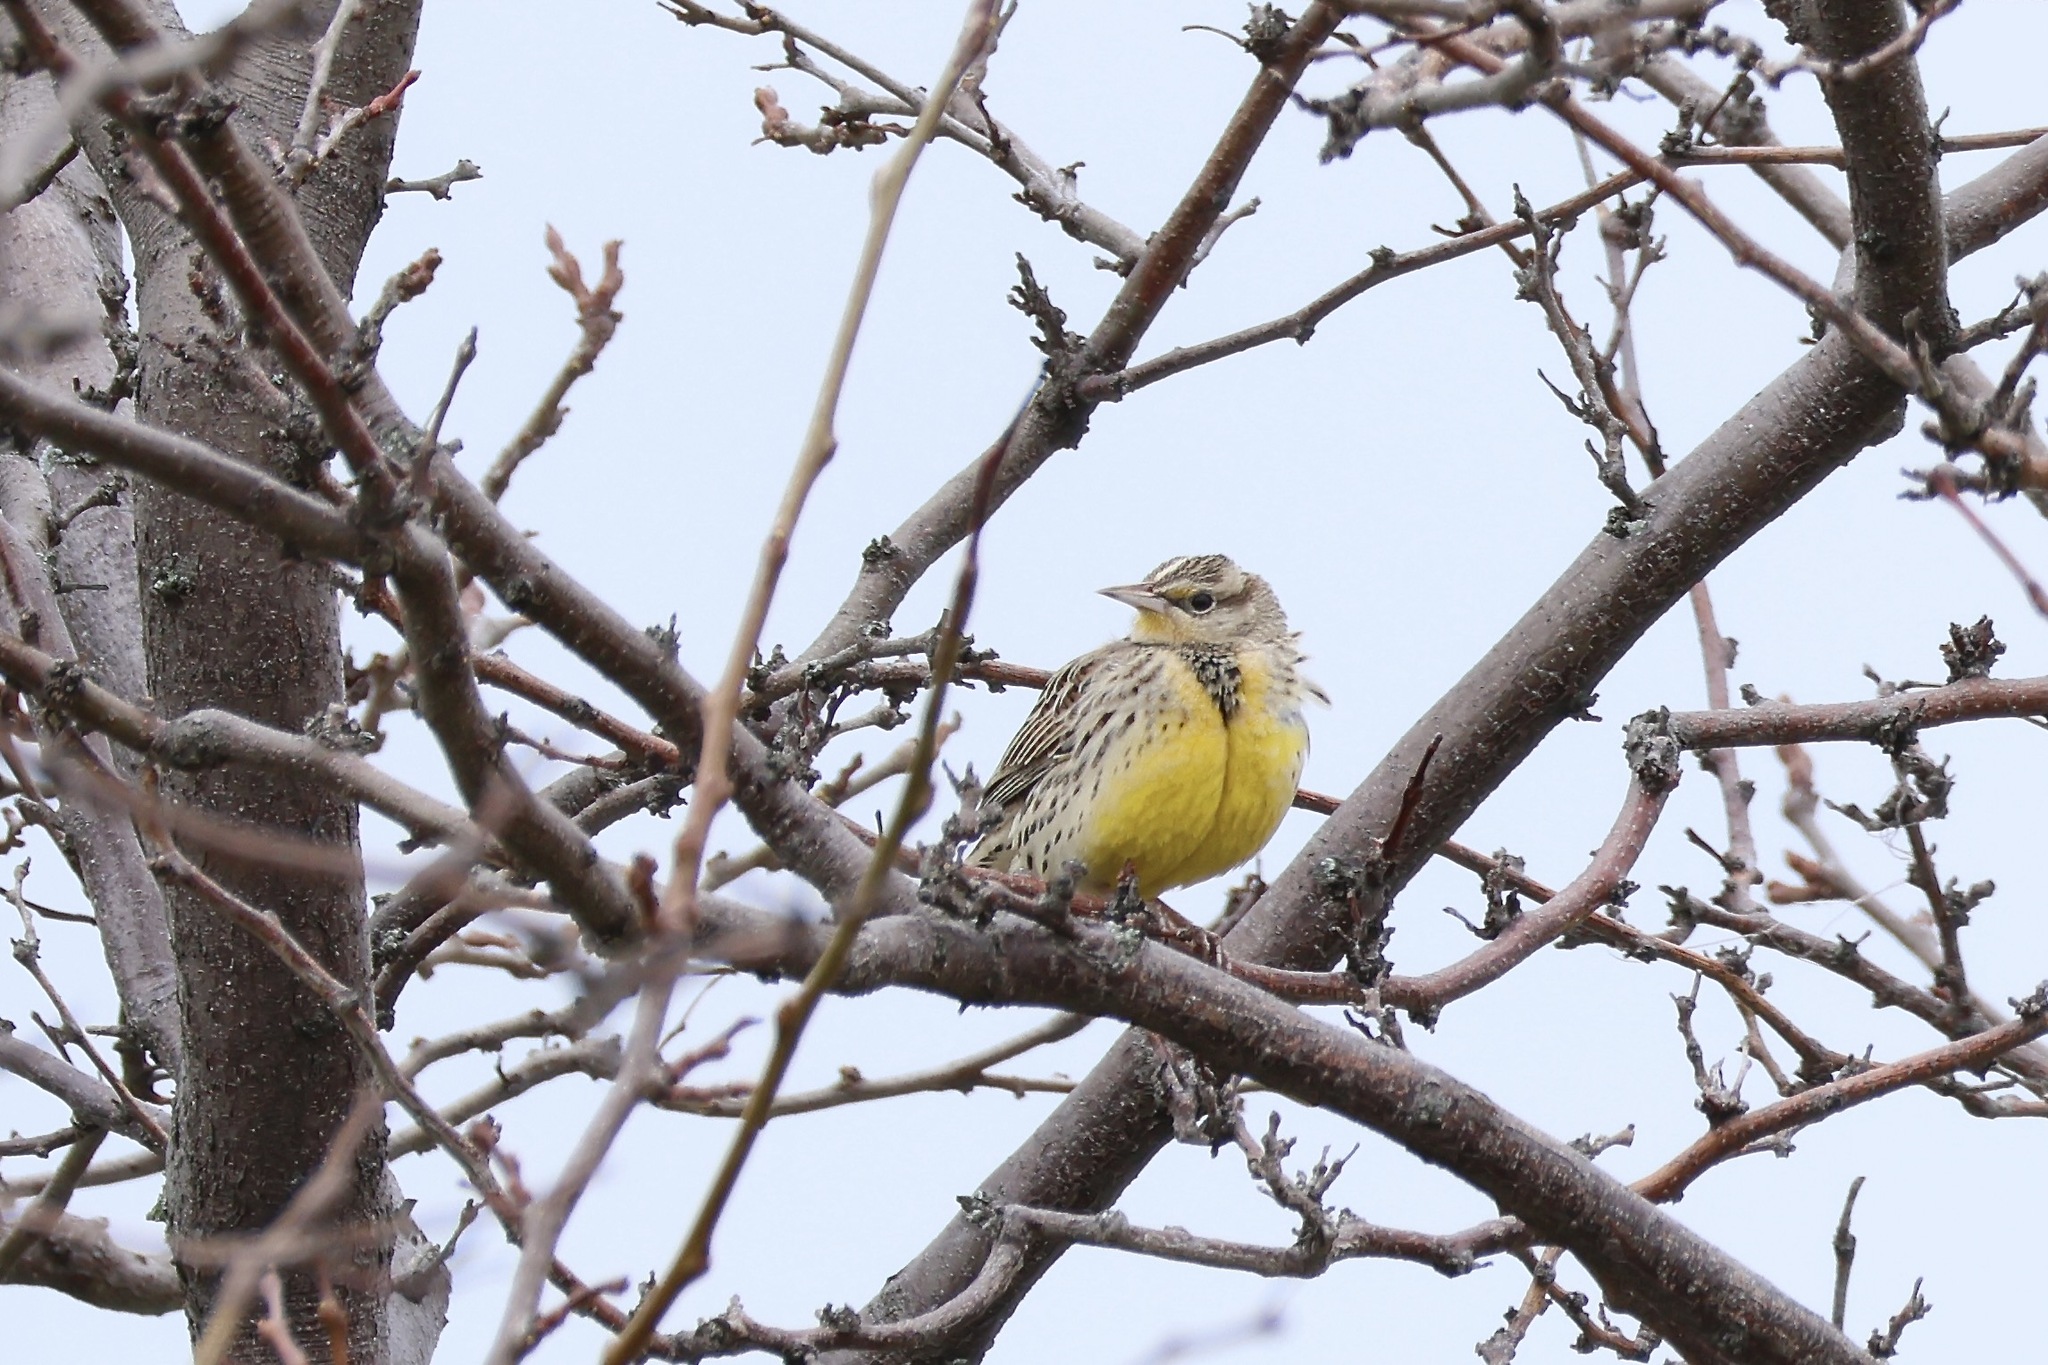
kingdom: Animalia
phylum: Chordata
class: Aves
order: Passeriformes
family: Icteridae
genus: Sturnella
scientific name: Sturnella neglecta
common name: Western meadowlark
